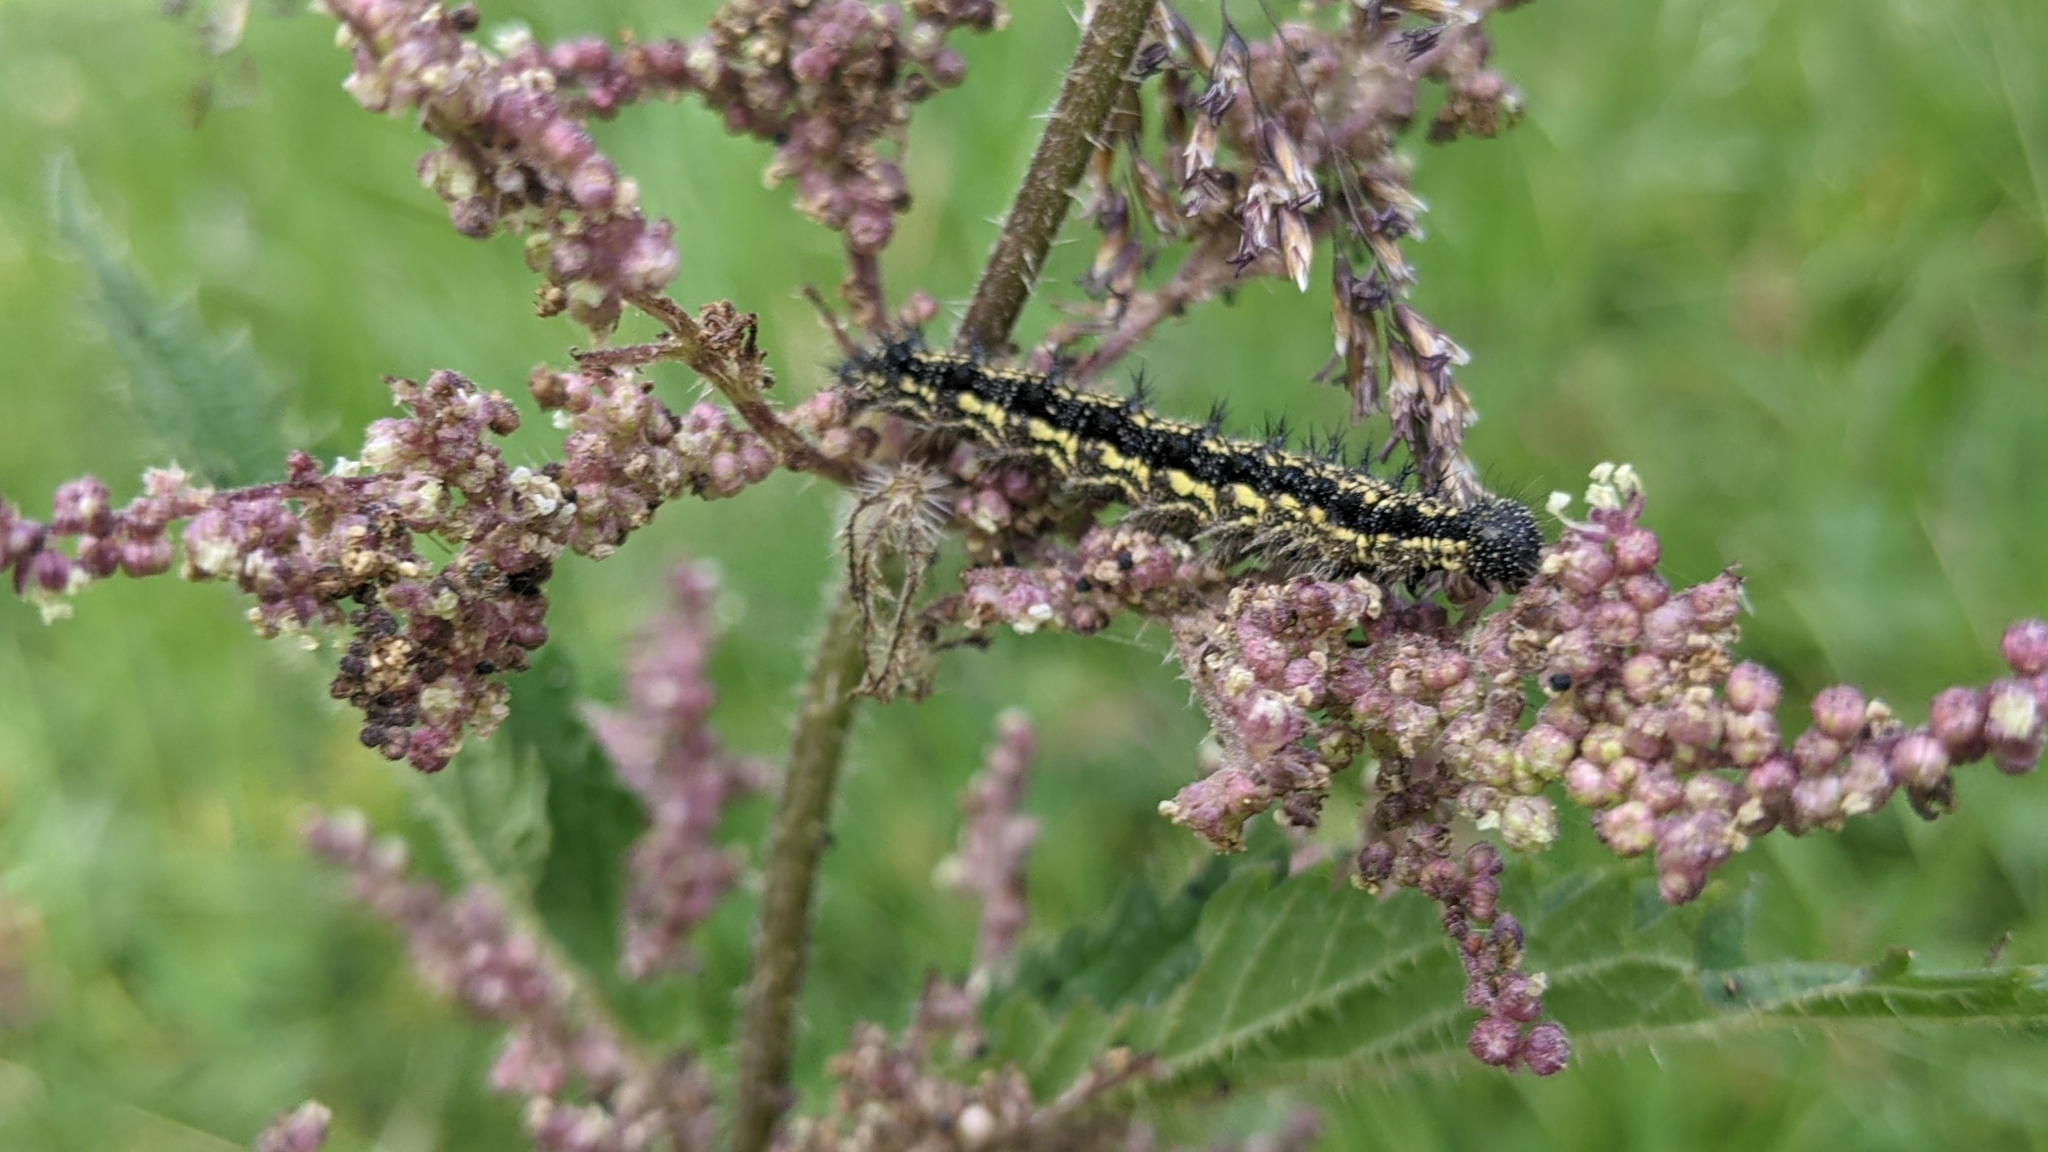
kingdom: Animalia
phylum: Arthropoda
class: Insecta
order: Lepidoptera
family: Nymphalidae
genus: Aglais
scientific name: Aglais urticae
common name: Small tortoiseshell
